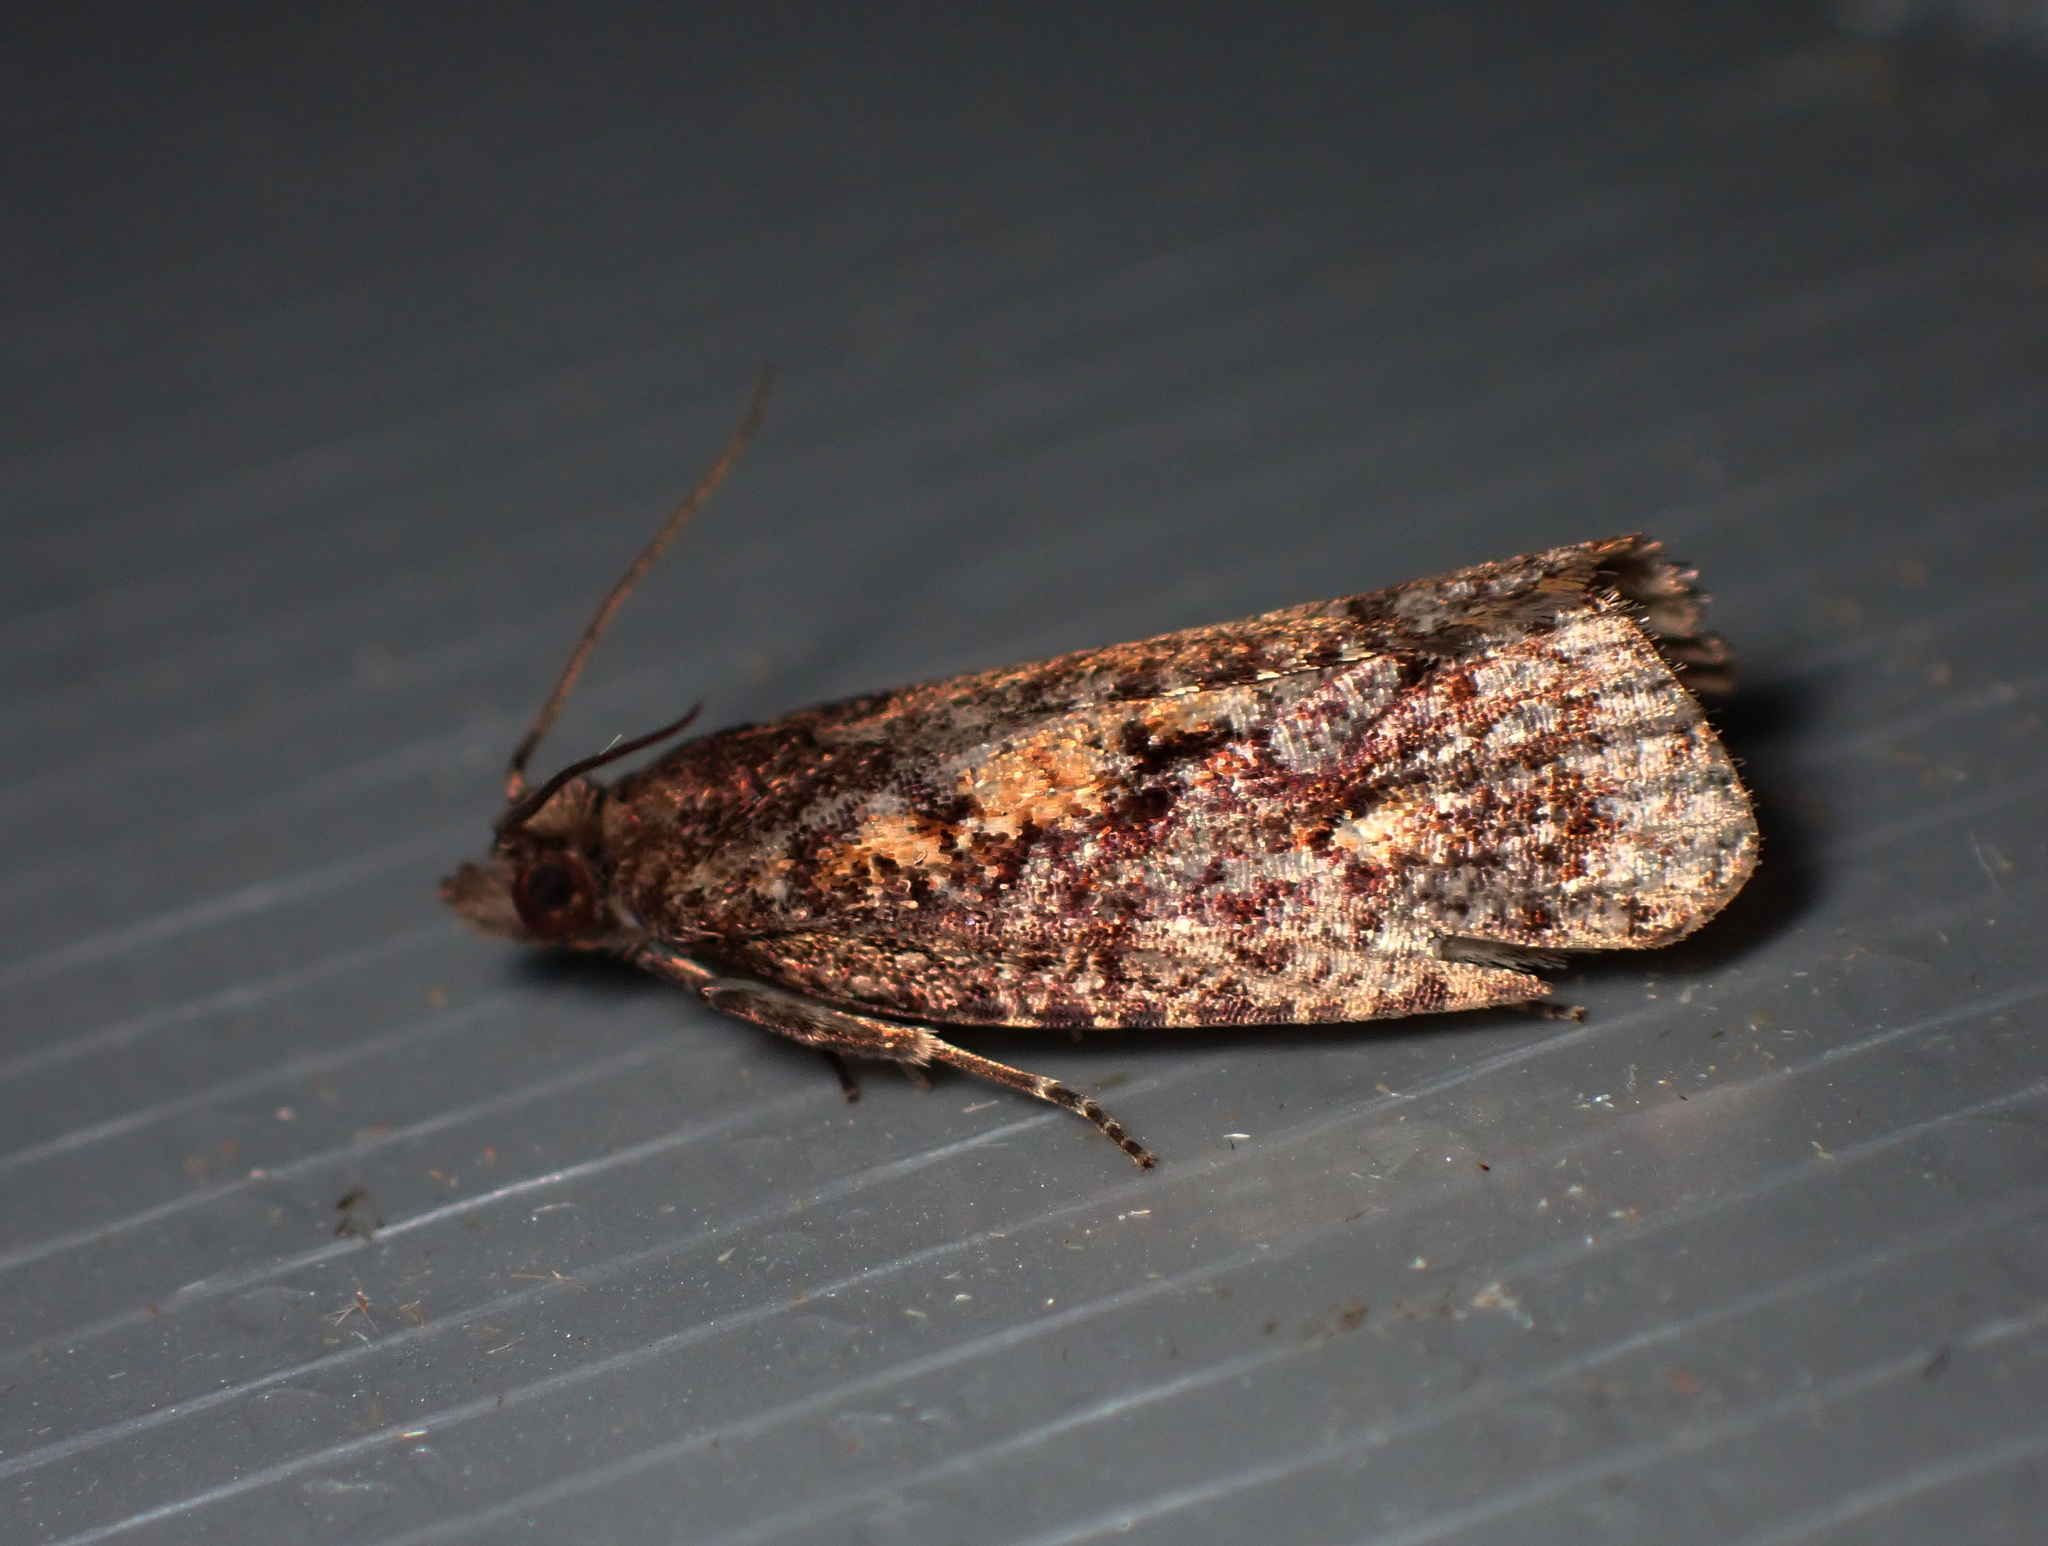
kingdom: Animalia
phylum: Arthropoda
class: Insecta
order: Lepidoptera
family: Tortricidae
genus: Cryptaspasma
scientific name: Cryptaspasma querula
